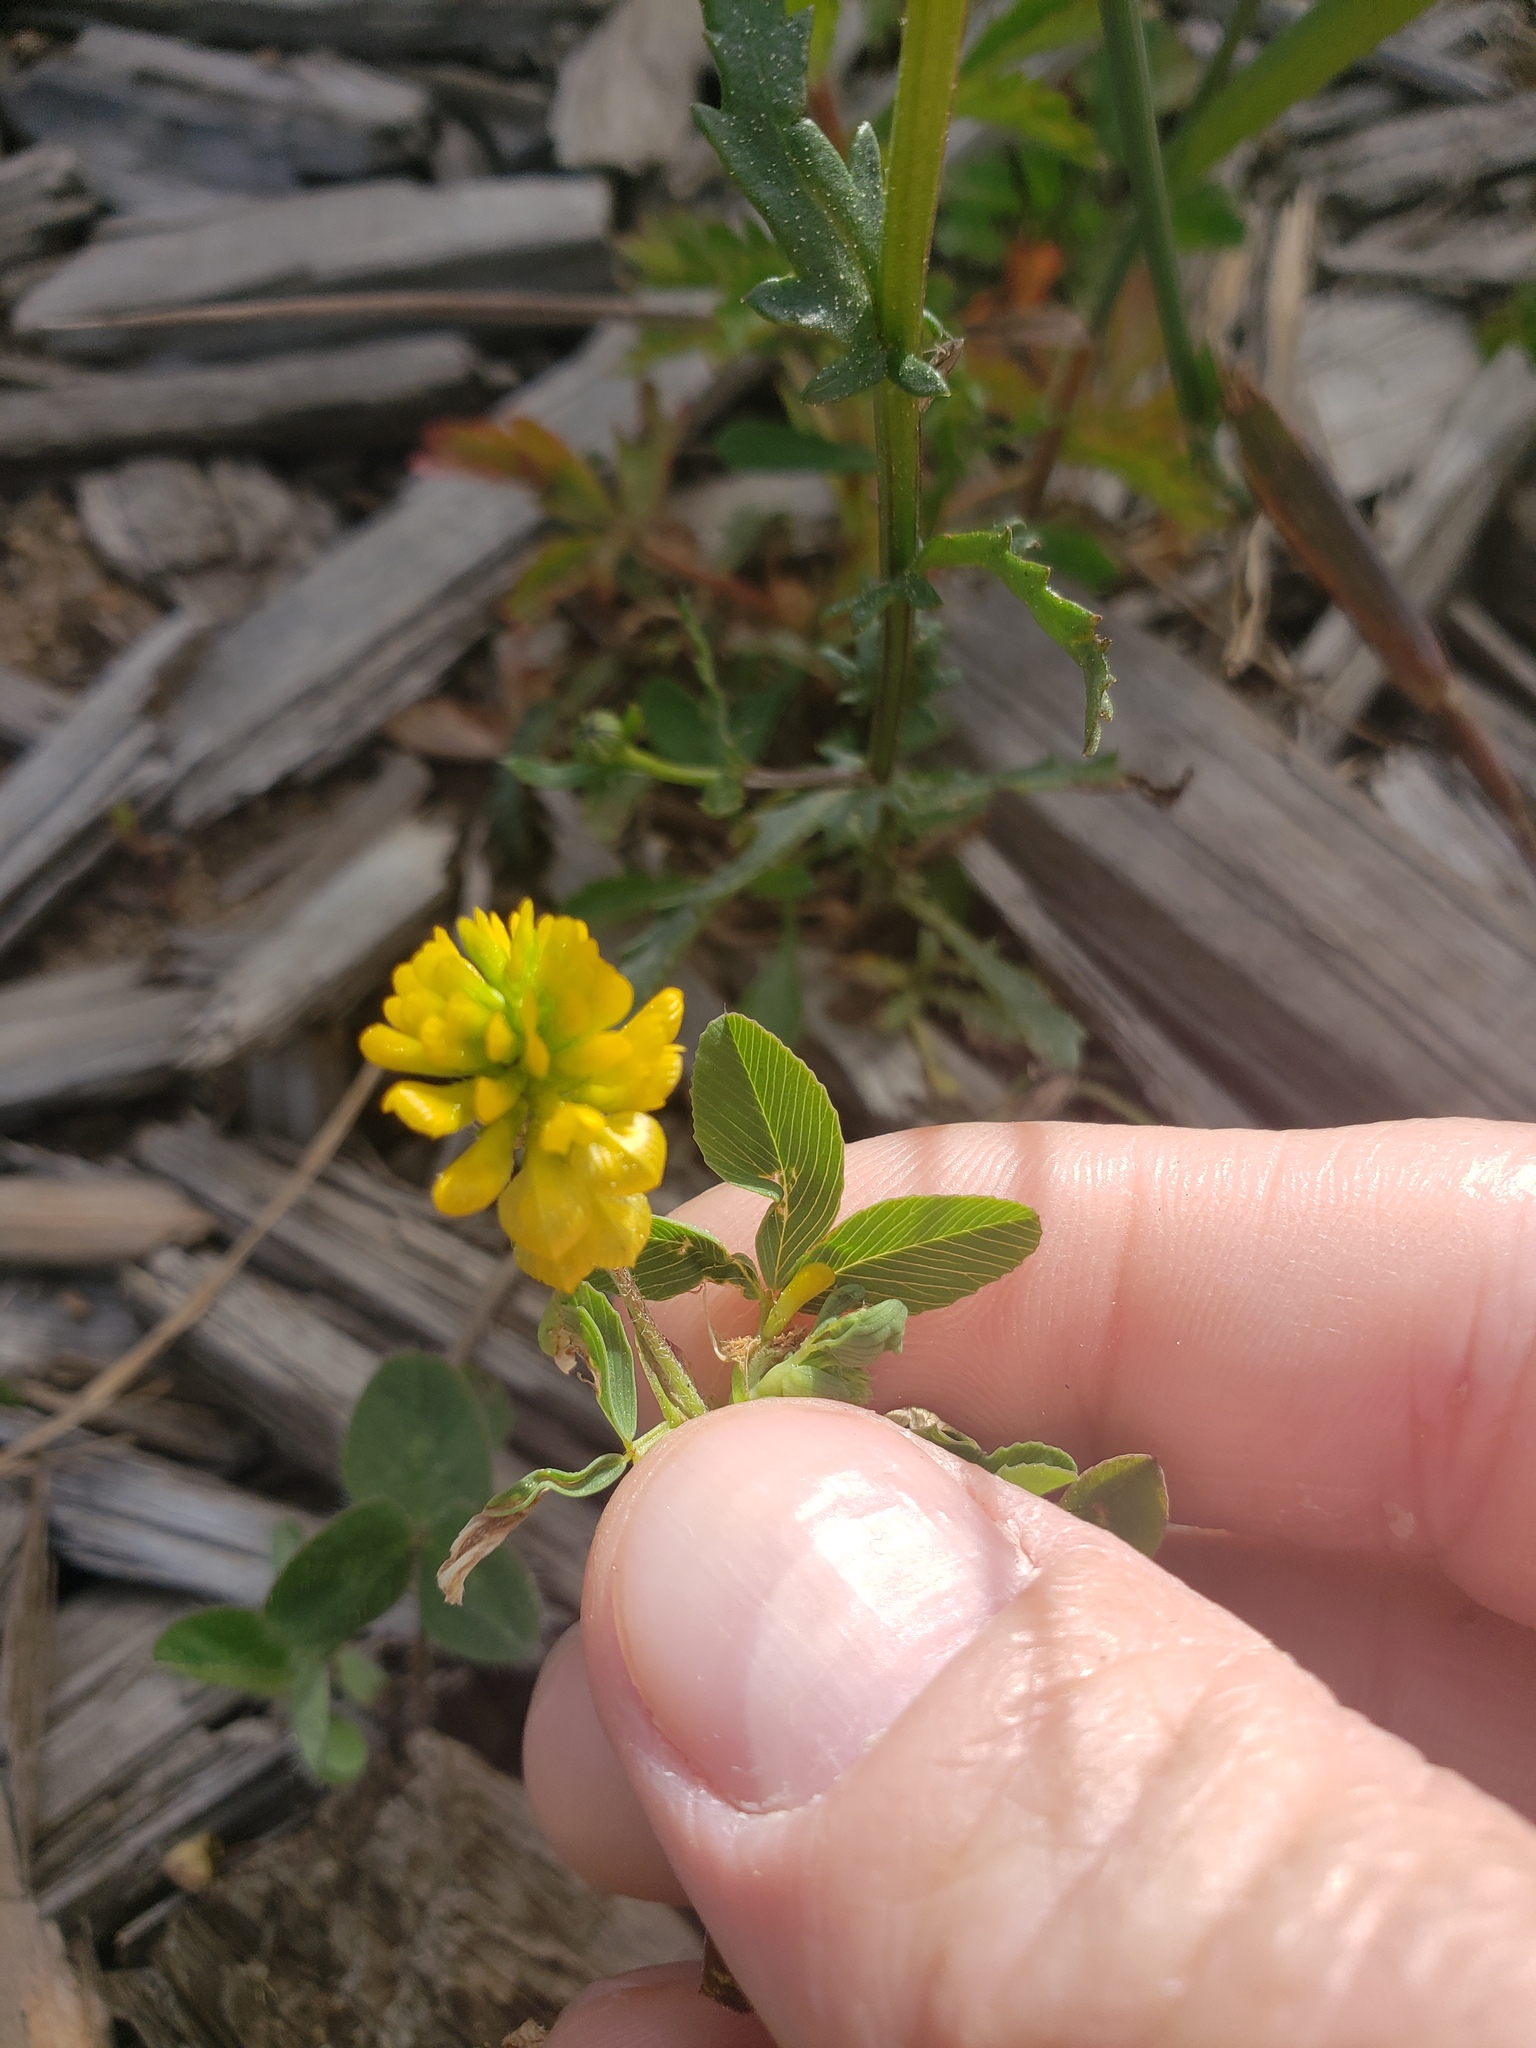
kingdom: Plantae
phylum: Tracheophyta
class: Magnoliopsida
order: Fabales
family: Fabaceae
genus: Trifolium
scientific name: Trifolium aureum
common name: Golden clover
